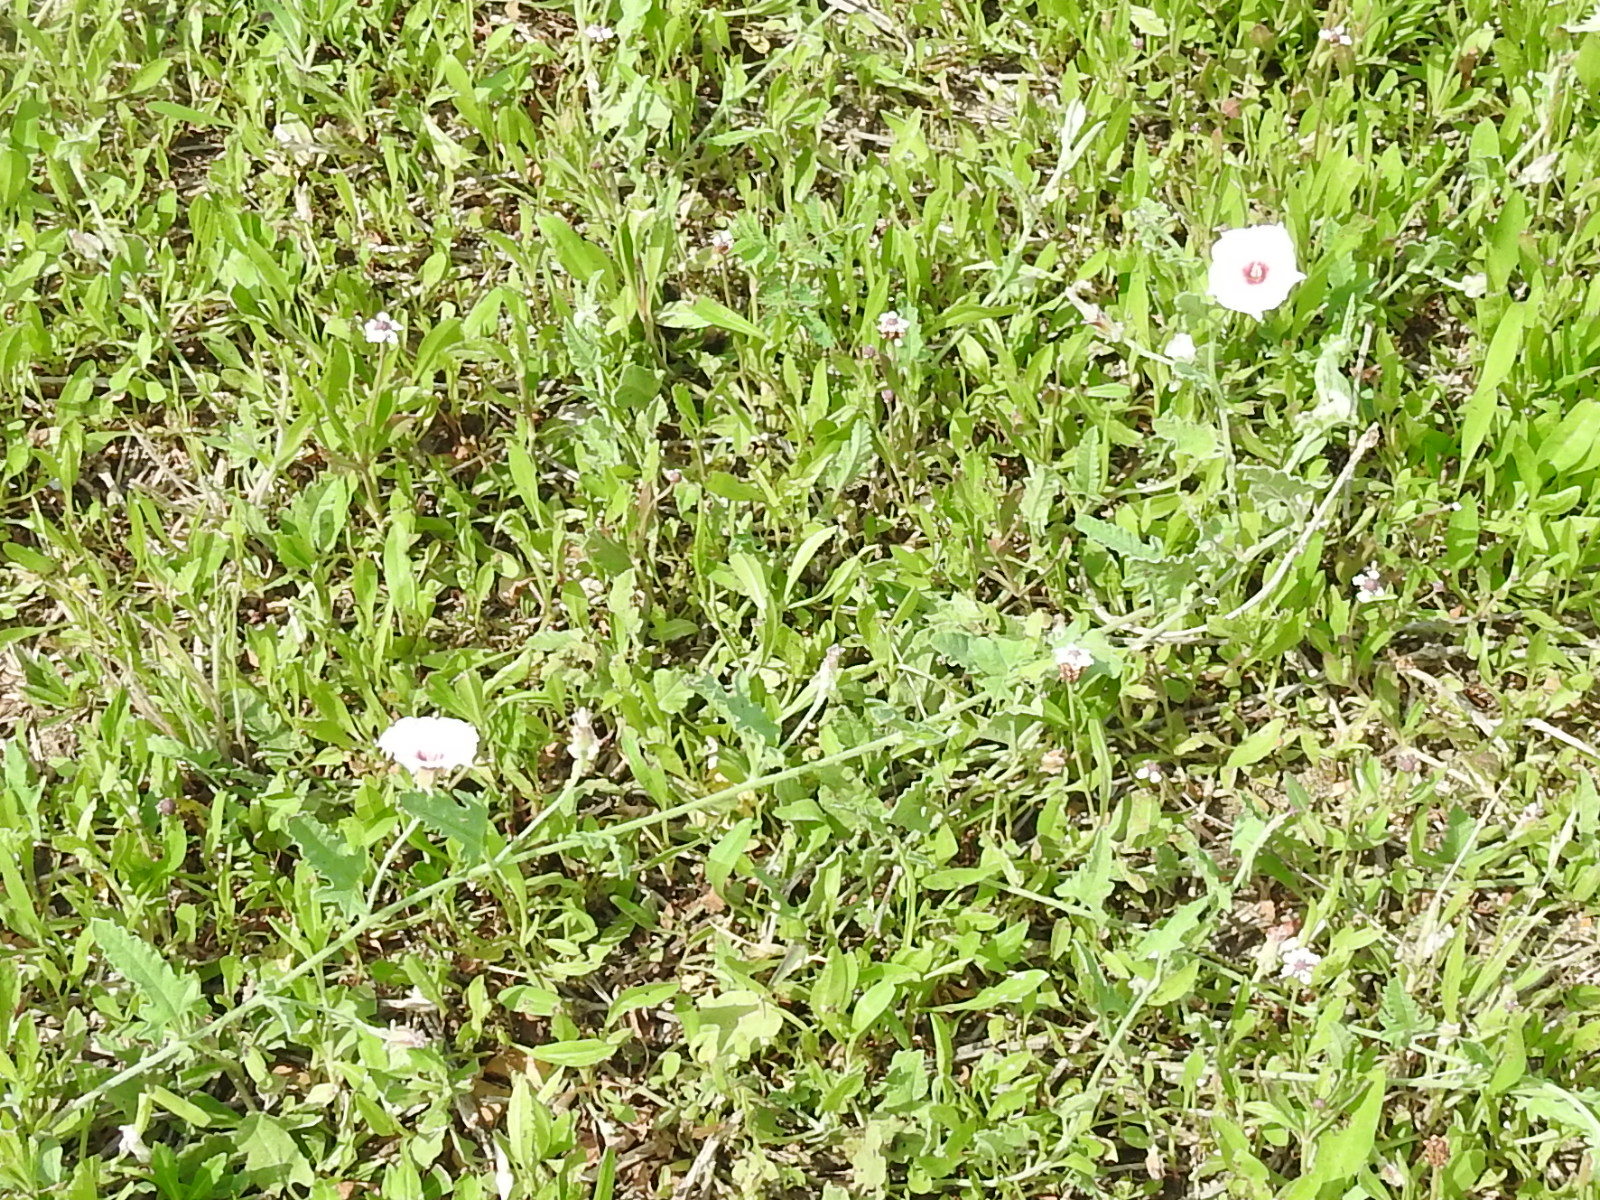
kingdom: Plantae
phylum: Tracheophyta
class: Magnoliopsida
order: Solanales
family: Convolvulaceae
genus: Convolvulus
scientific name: Convolvulus equitans
